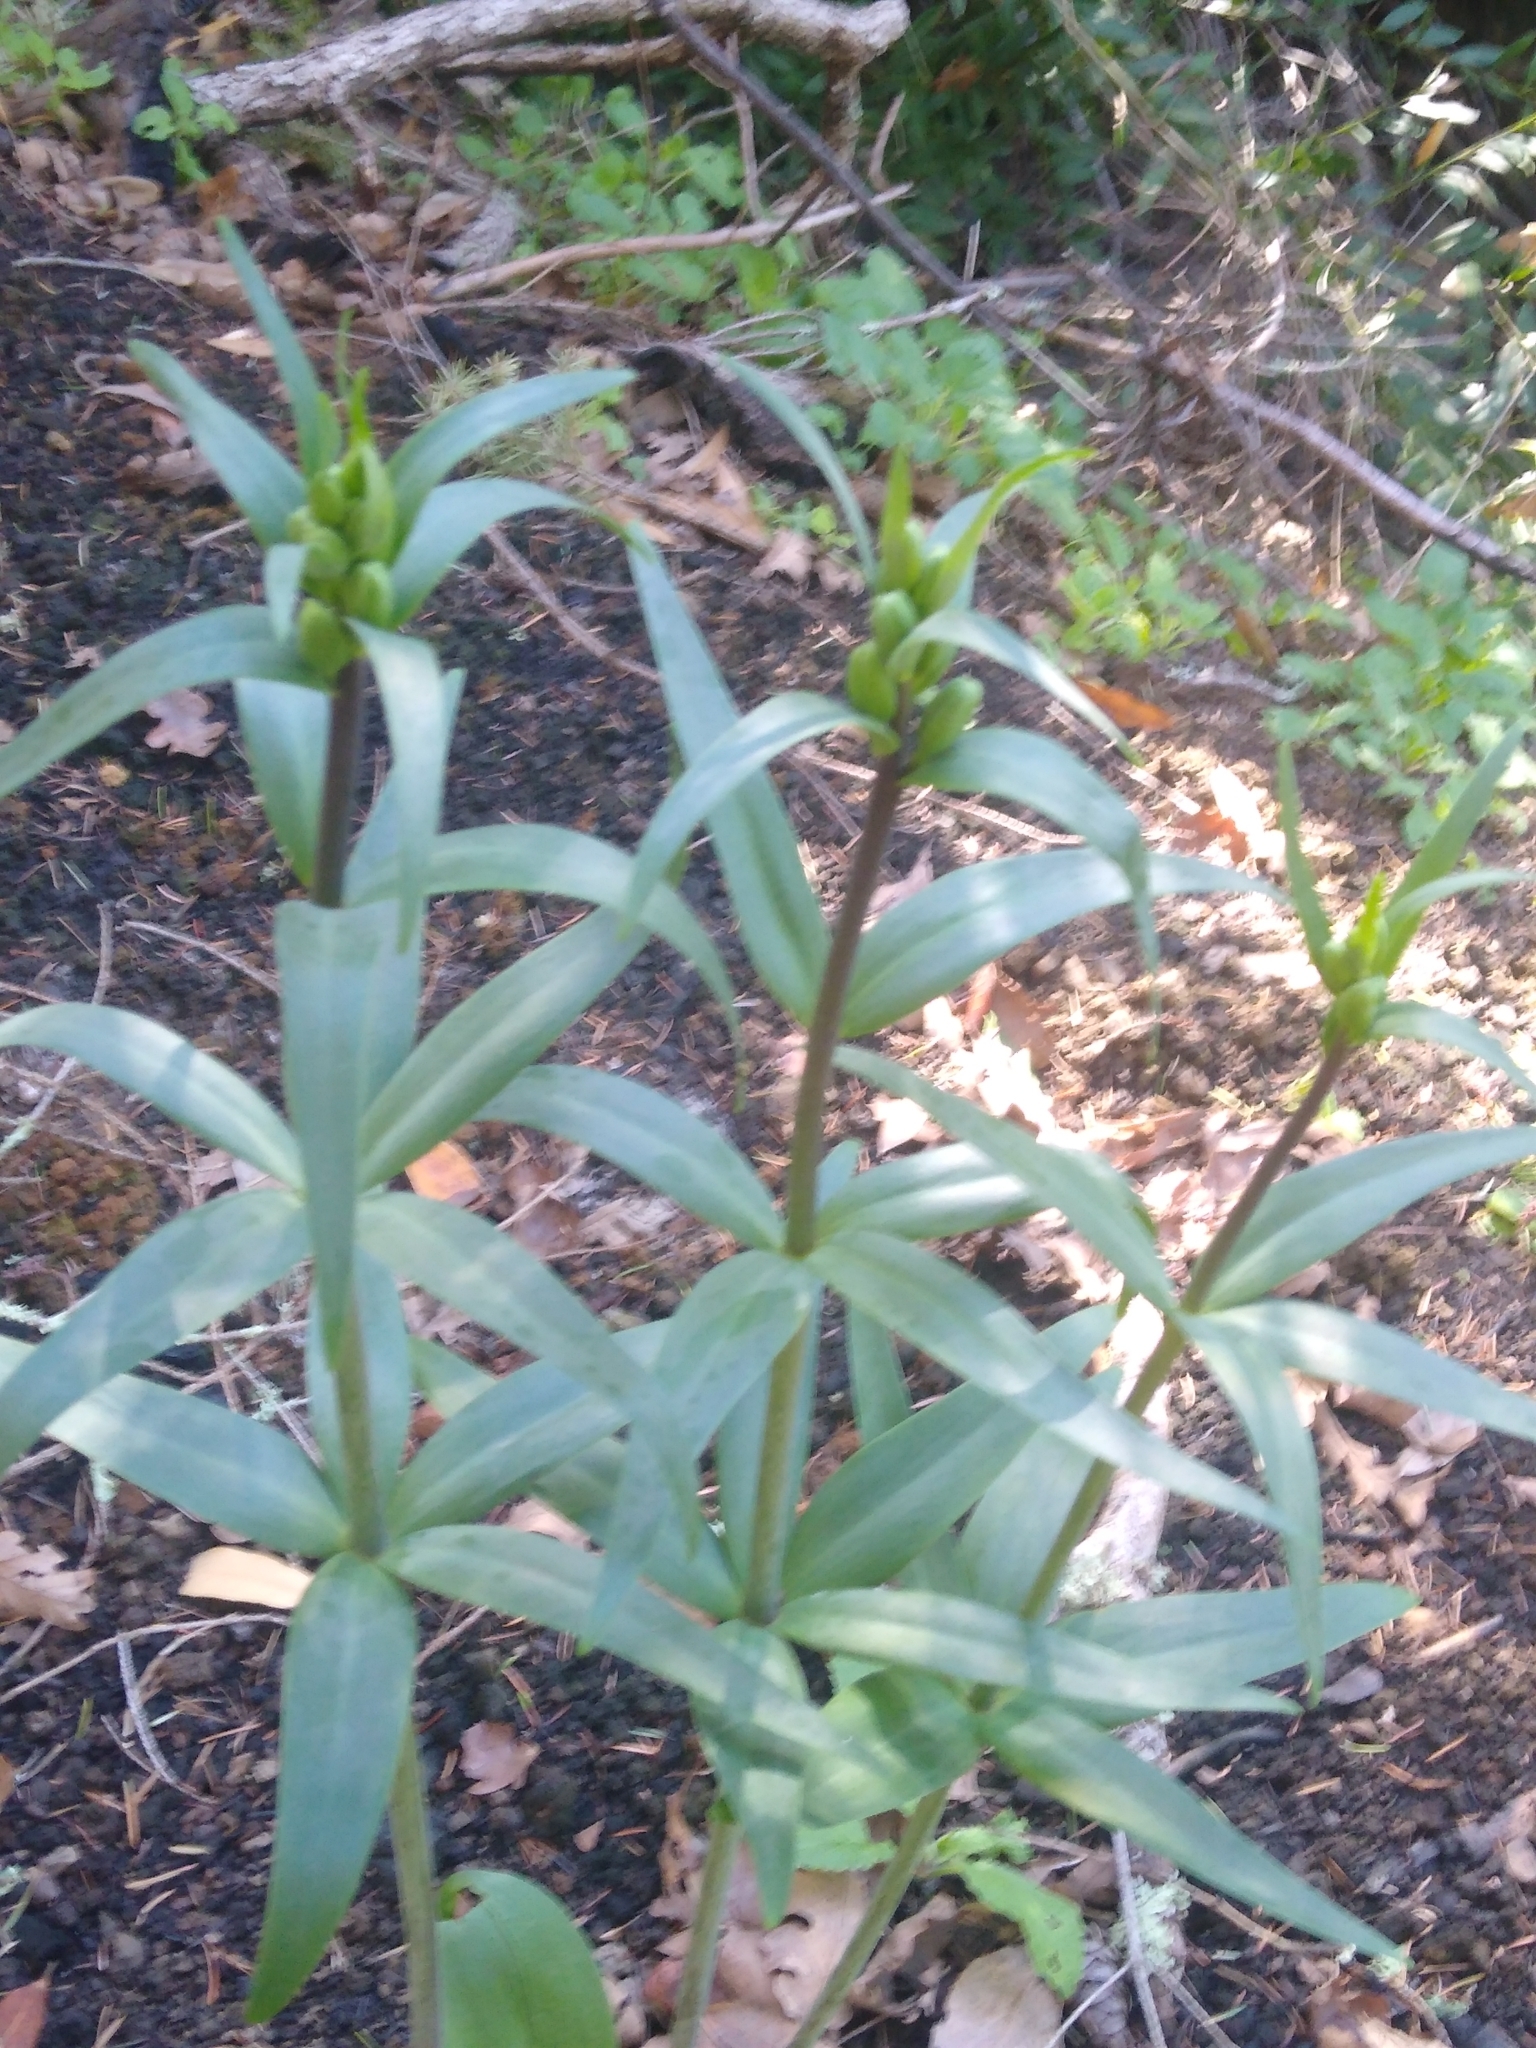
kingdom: Plantae
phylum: Tracheophyta
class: Liliopsida
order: Liliales
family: Liliaceae
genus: Fritillaria
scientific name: Fritillaria affinis
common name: Ojai fritillary
